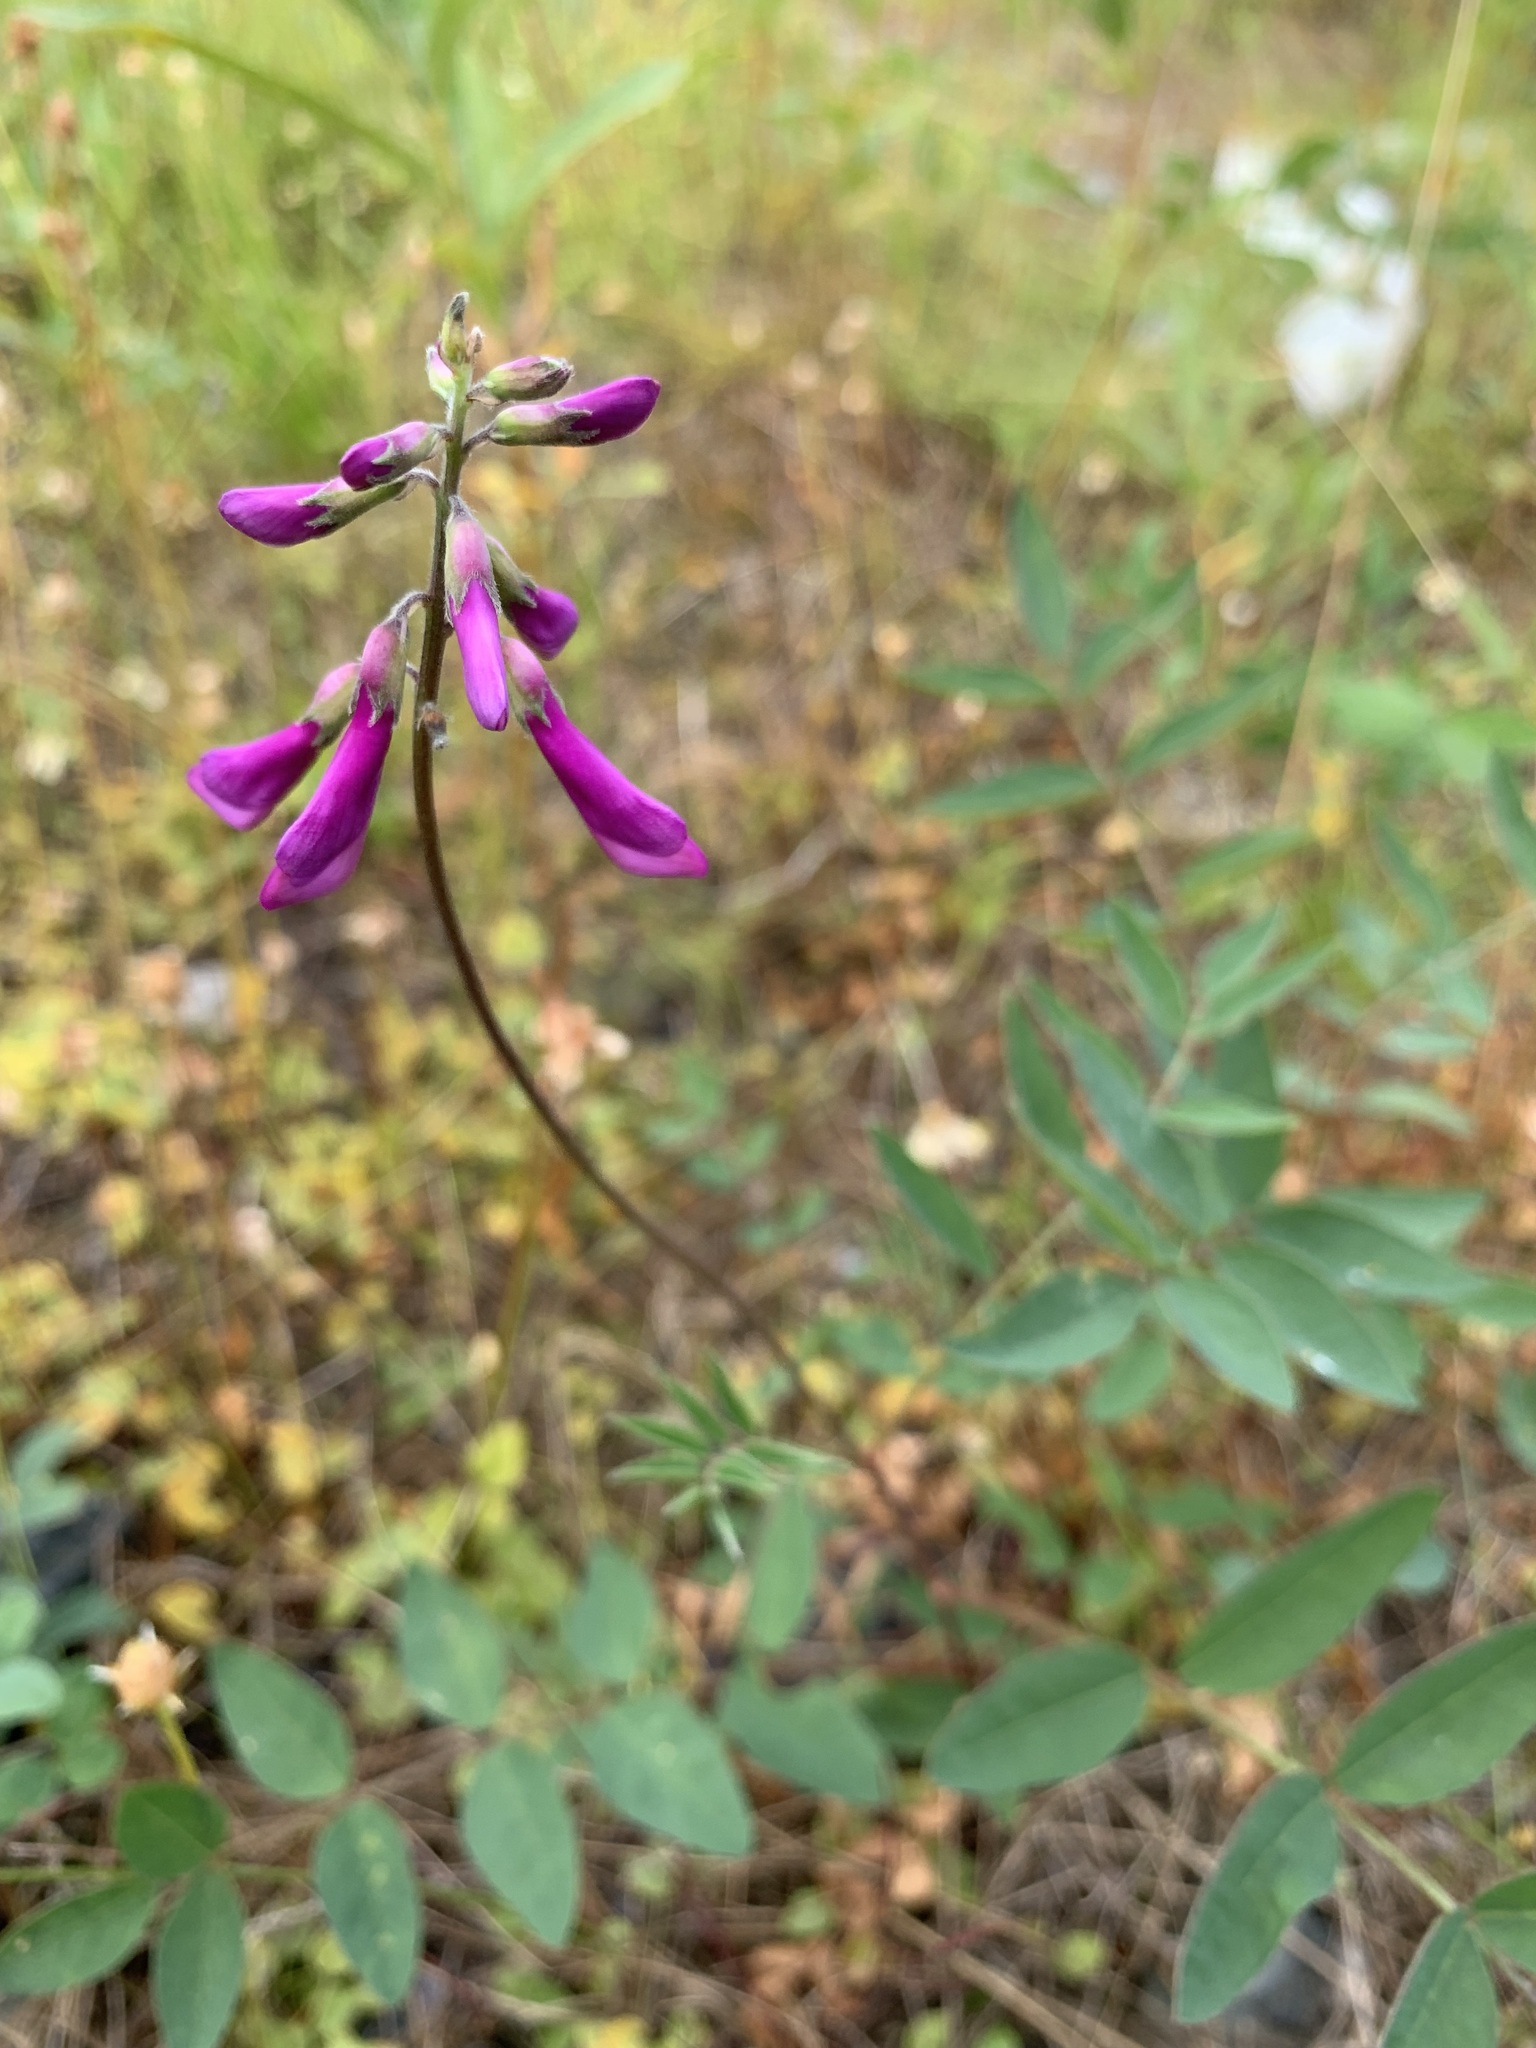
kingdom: Plantae
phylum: Tracheophyta
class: Magnoliopsida
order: Fabales
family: Fabaceae
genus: Hedysarum
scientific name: Hedysarum hedysaroides
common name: Alpine french-honeysuckle
